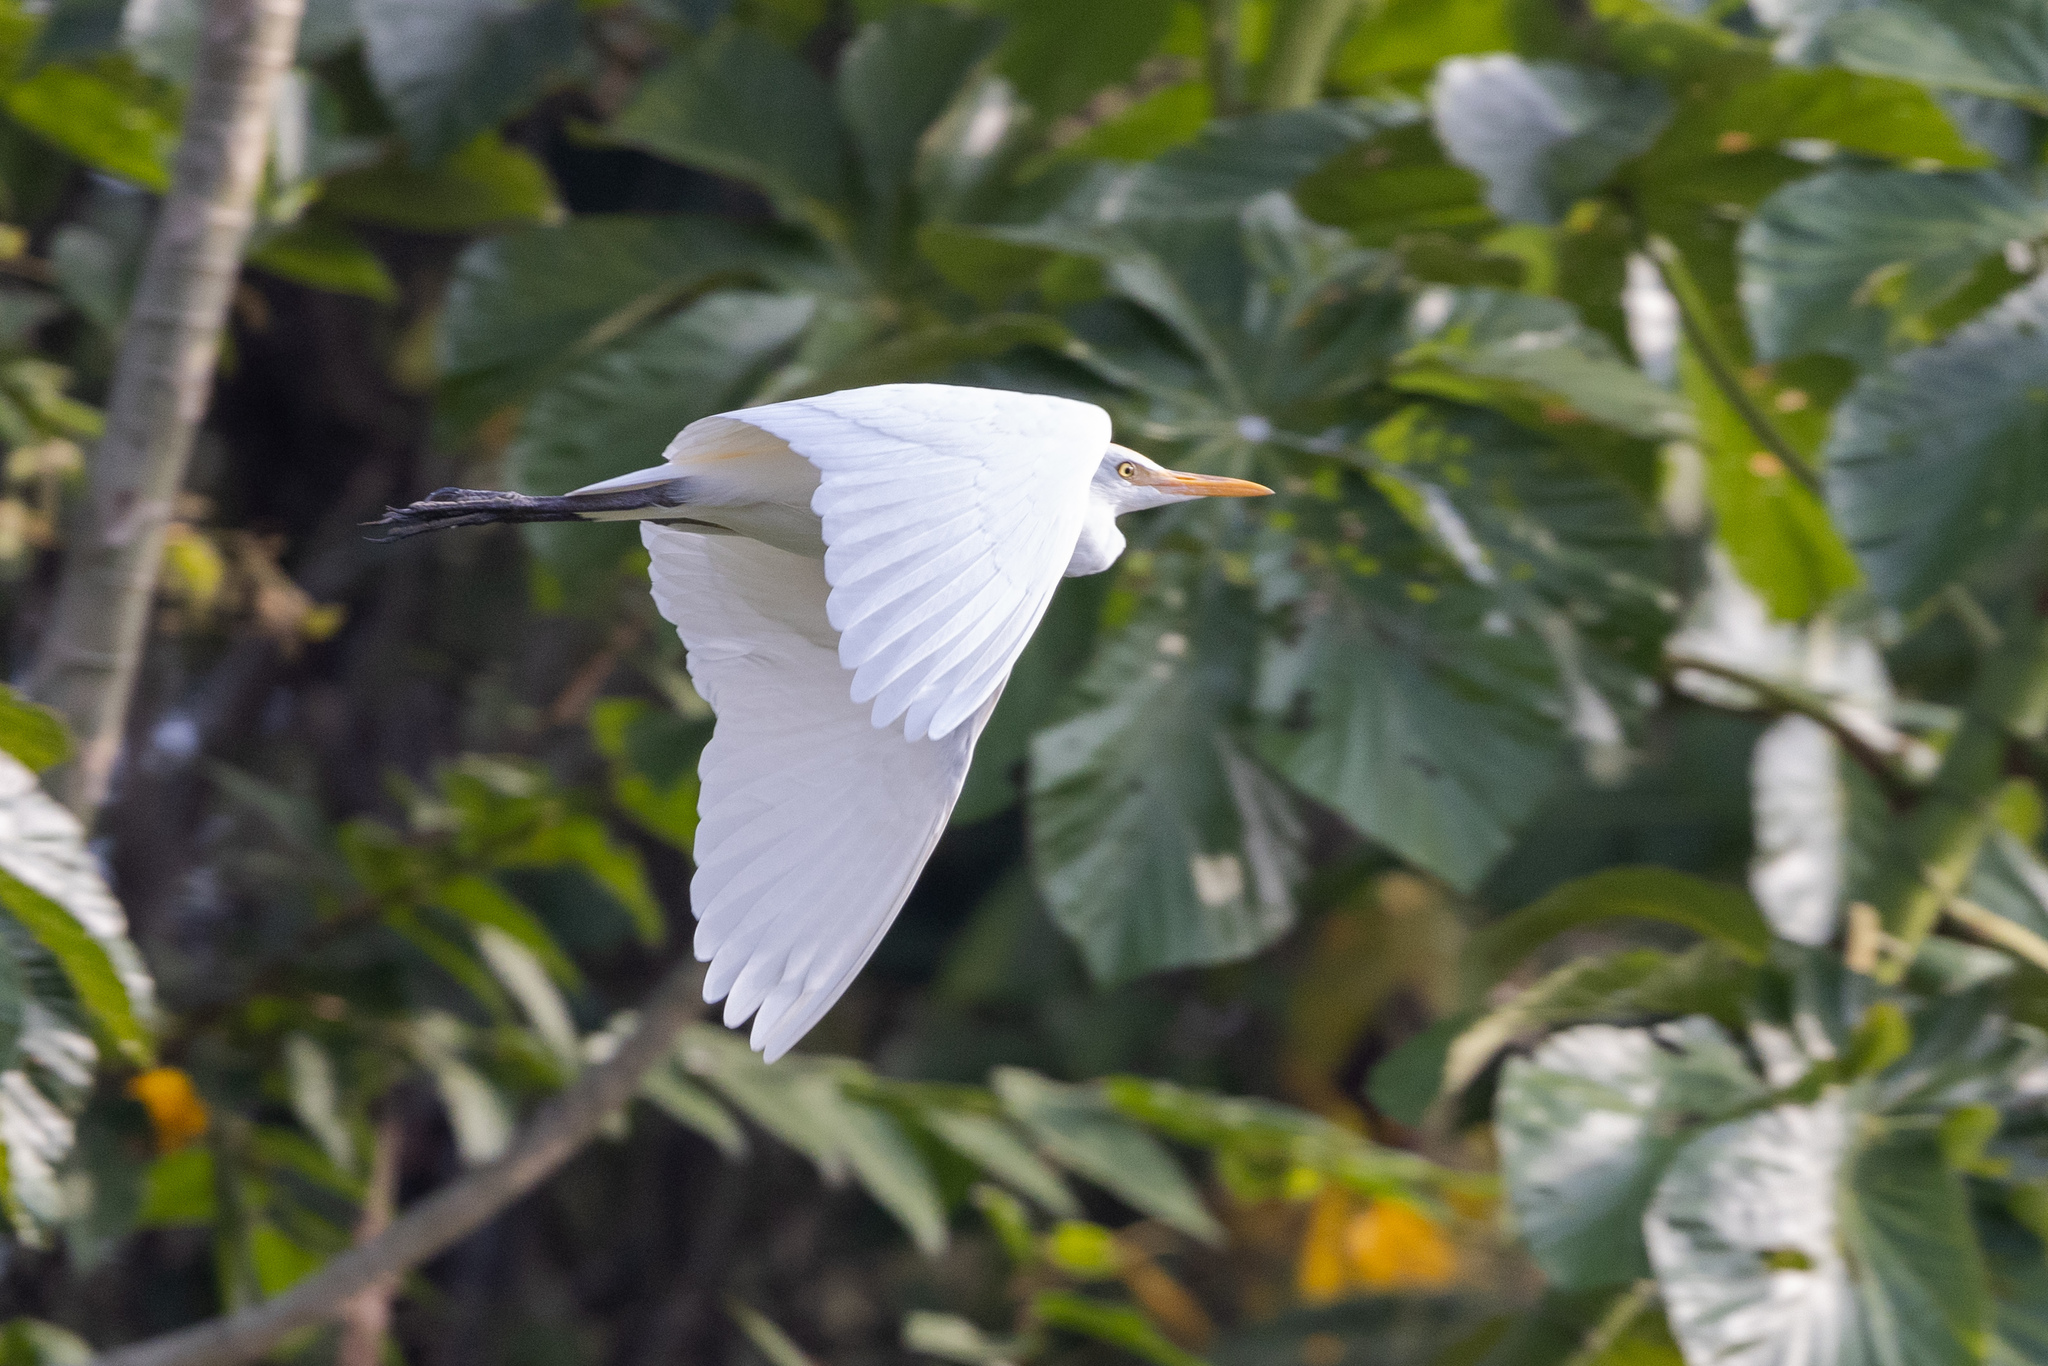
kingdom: Animalia
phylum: Chordata
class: Aves
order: Pelecaniformes
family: Ardeidae
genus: Bubulcus
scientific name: Bubulcus ibis
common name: Cattle egret
